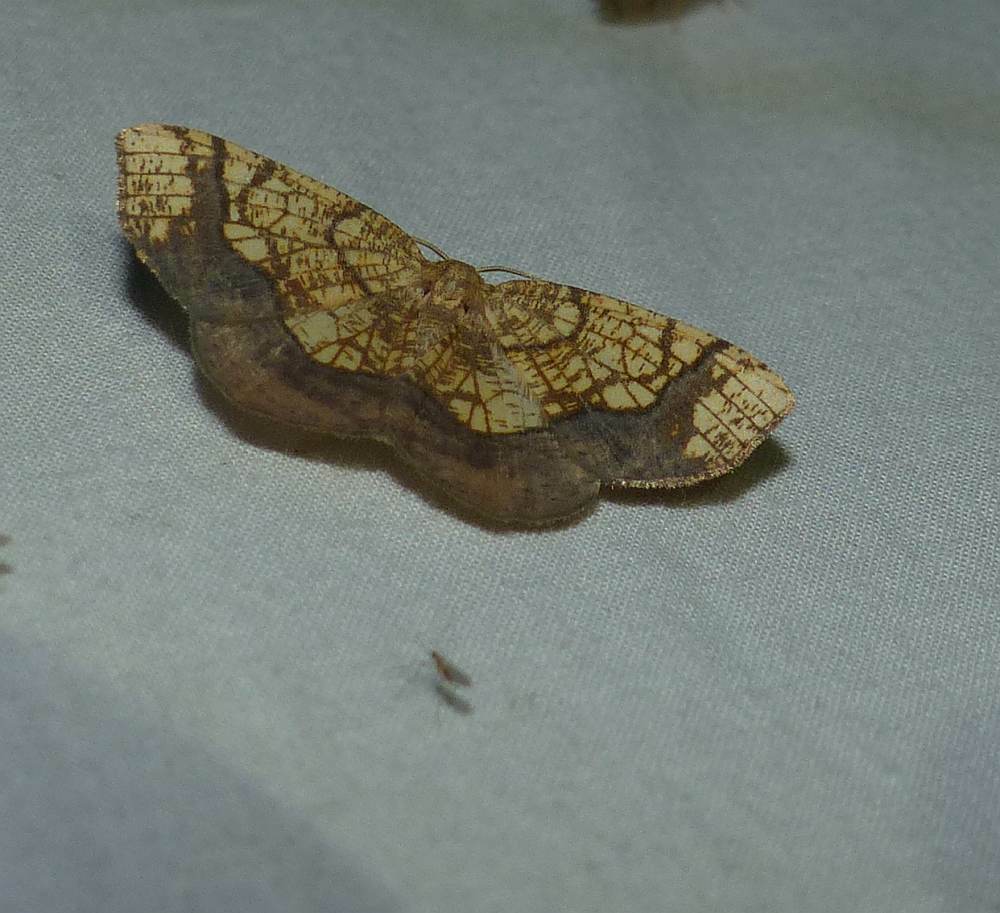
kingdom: Animalia
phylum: Arthropoda
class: Insecta
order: Lepidoptera
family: Geometridae
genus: Nematocampa
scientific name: Nematocampa resistaria
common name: Horned spanworm moth
